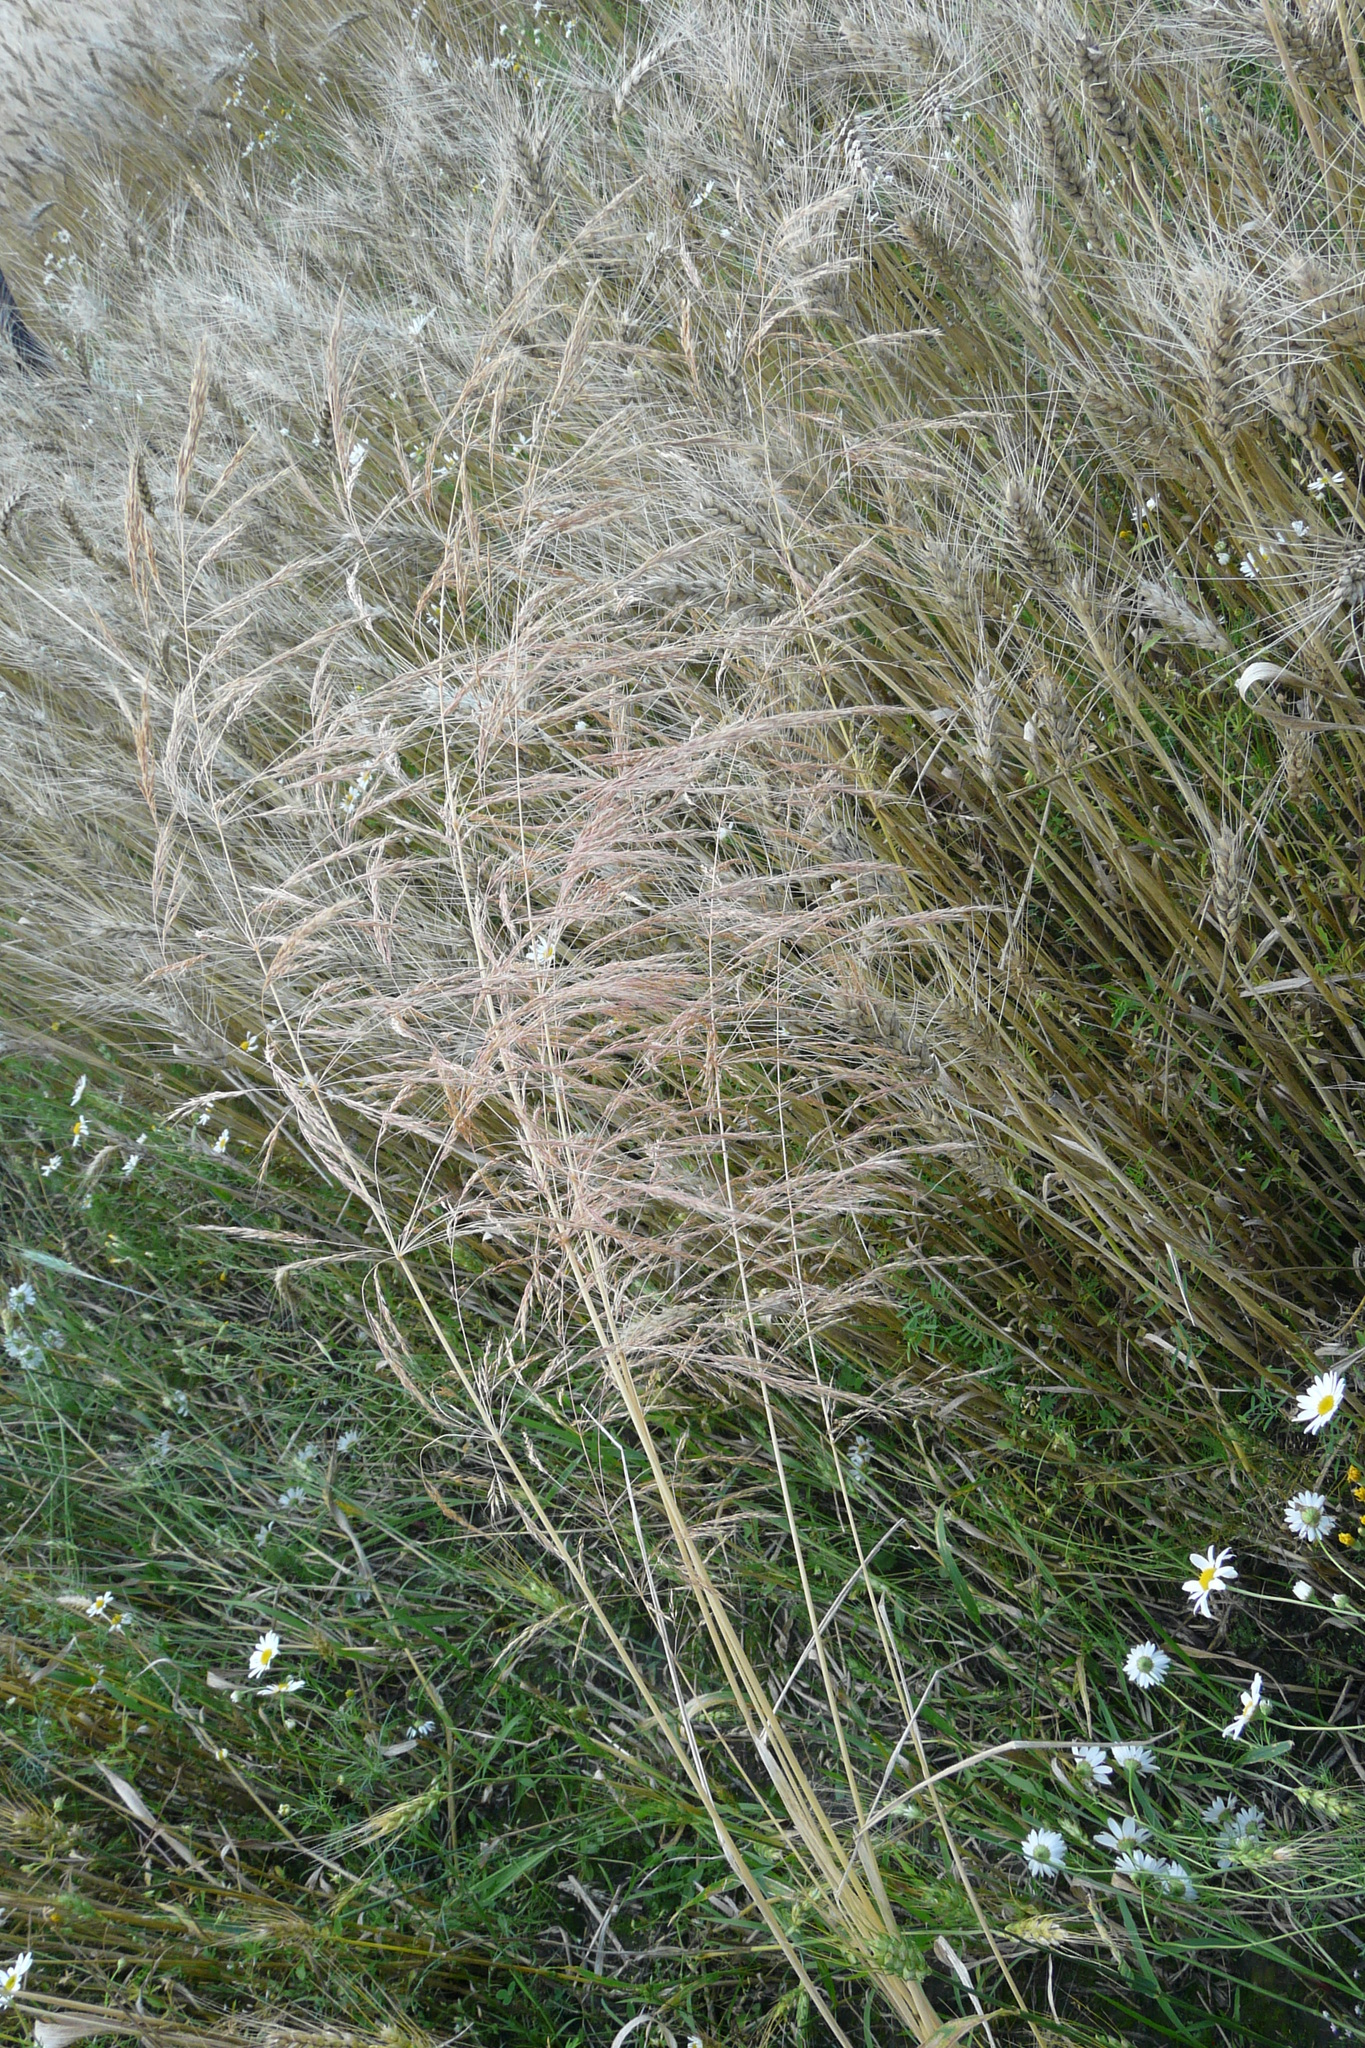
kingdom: Plantae
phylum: Tracheophyta
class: Liliopsida
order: Poales
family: Poaceae
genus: Apera
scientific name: Apera spica-venti
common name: Loose silky-bent
